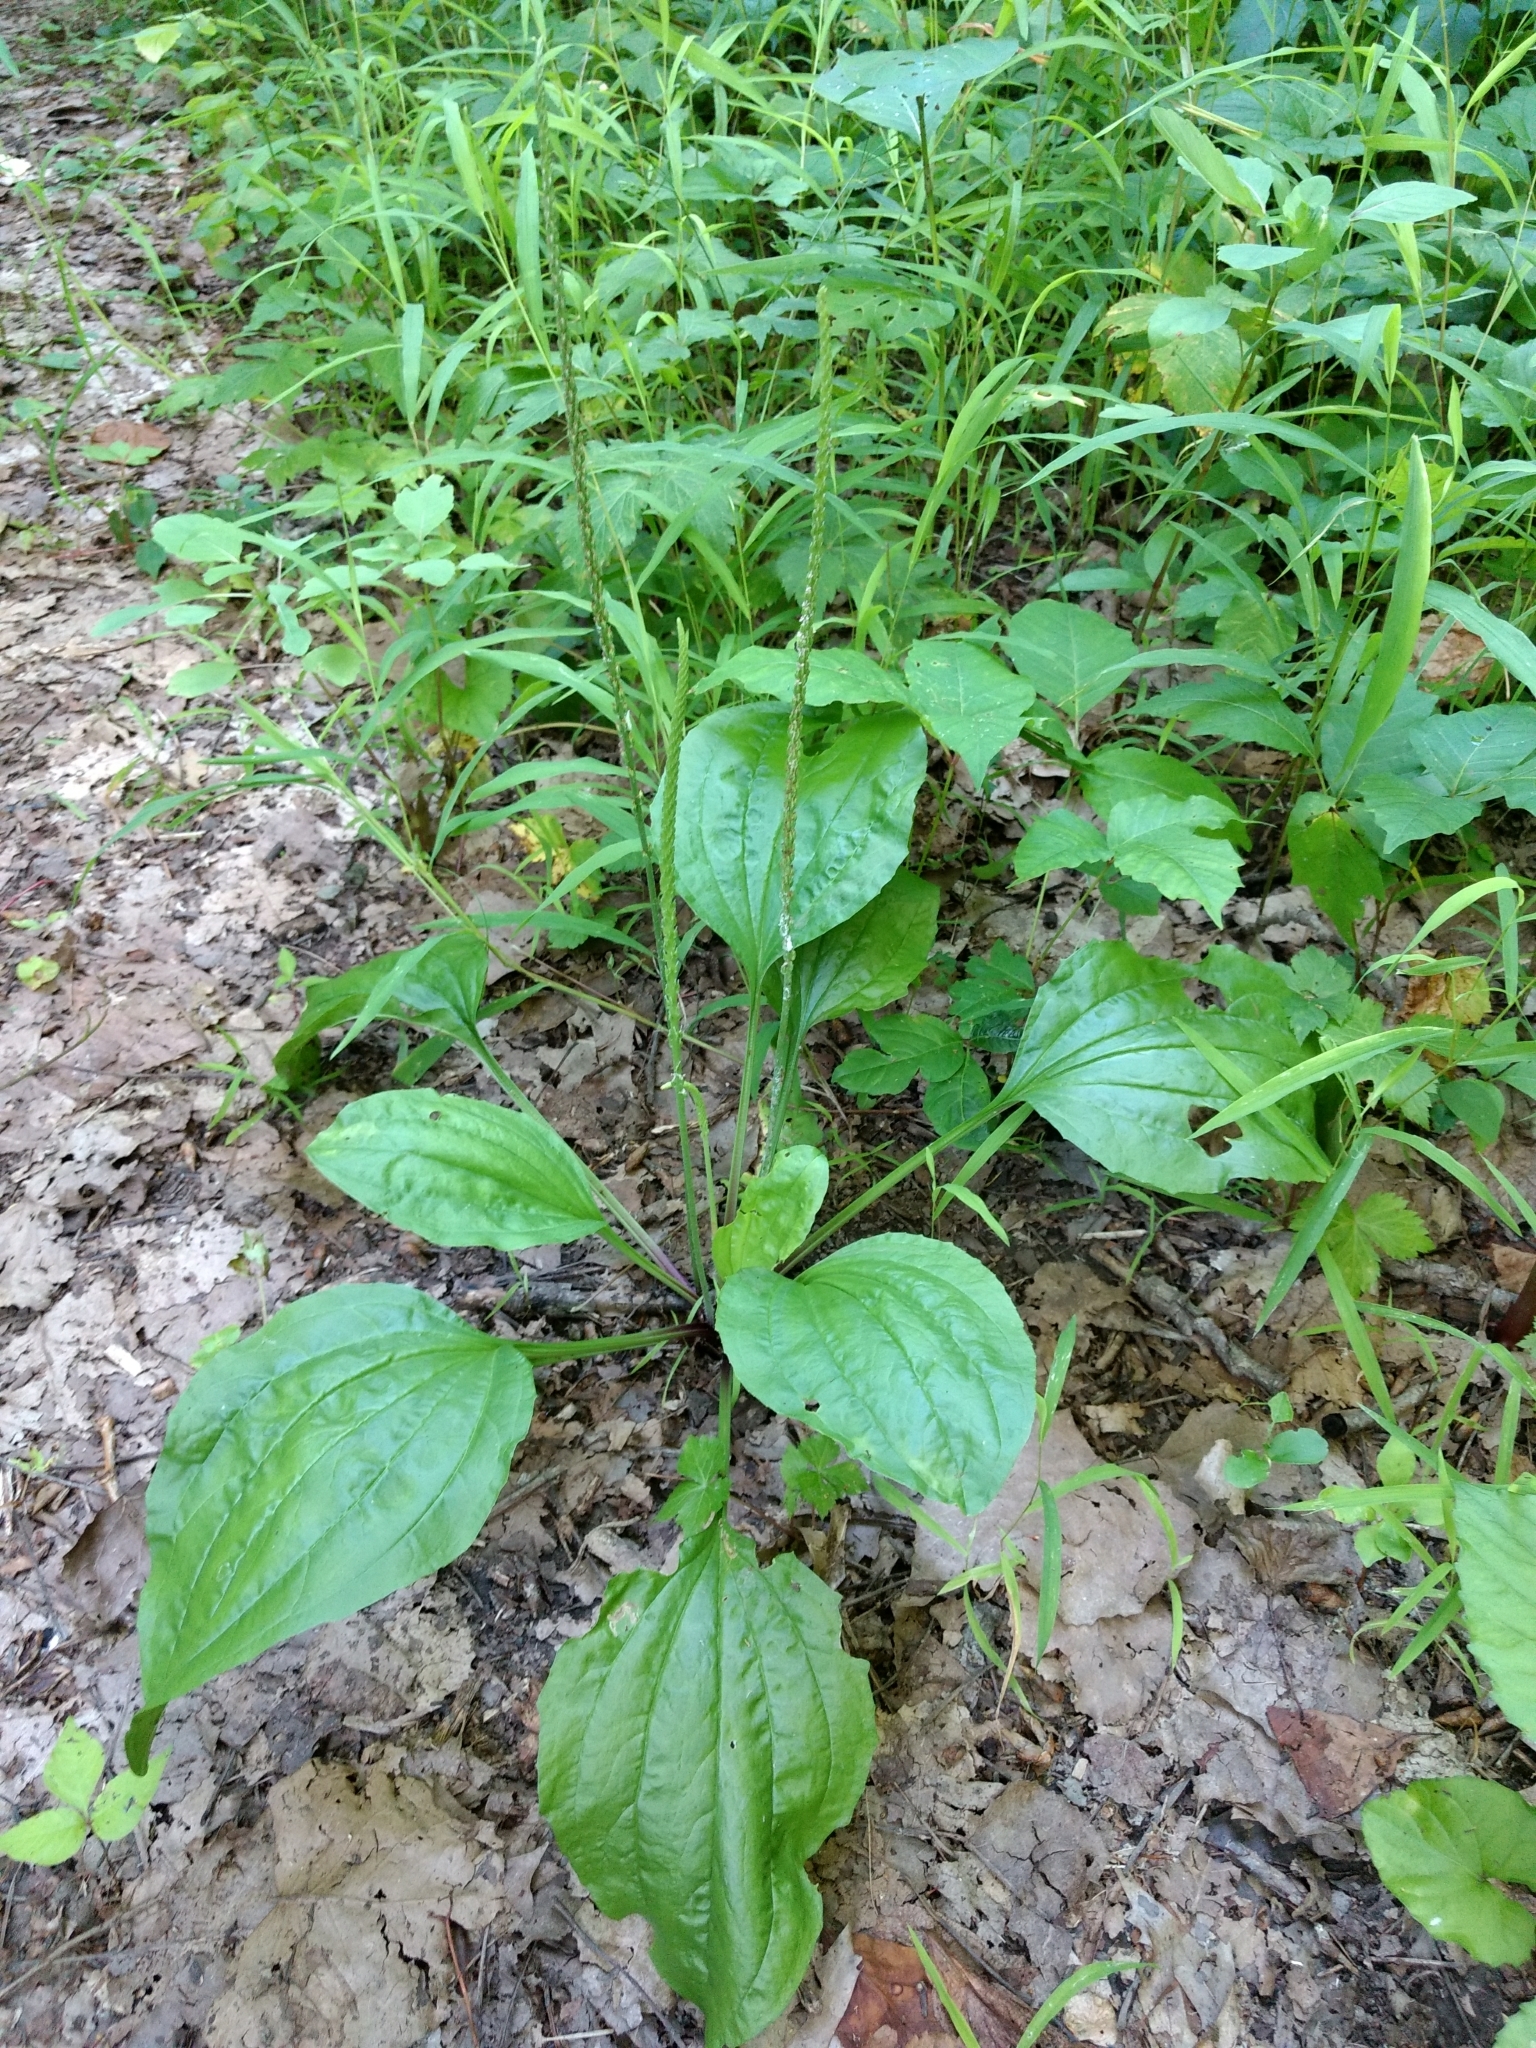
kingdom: Plantae
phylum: Tracheophyta
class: Magnoliopsida
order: Lamiales
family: Plantaginaceae
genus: Plantago
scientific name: Plantago rugelii
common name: American plantain
